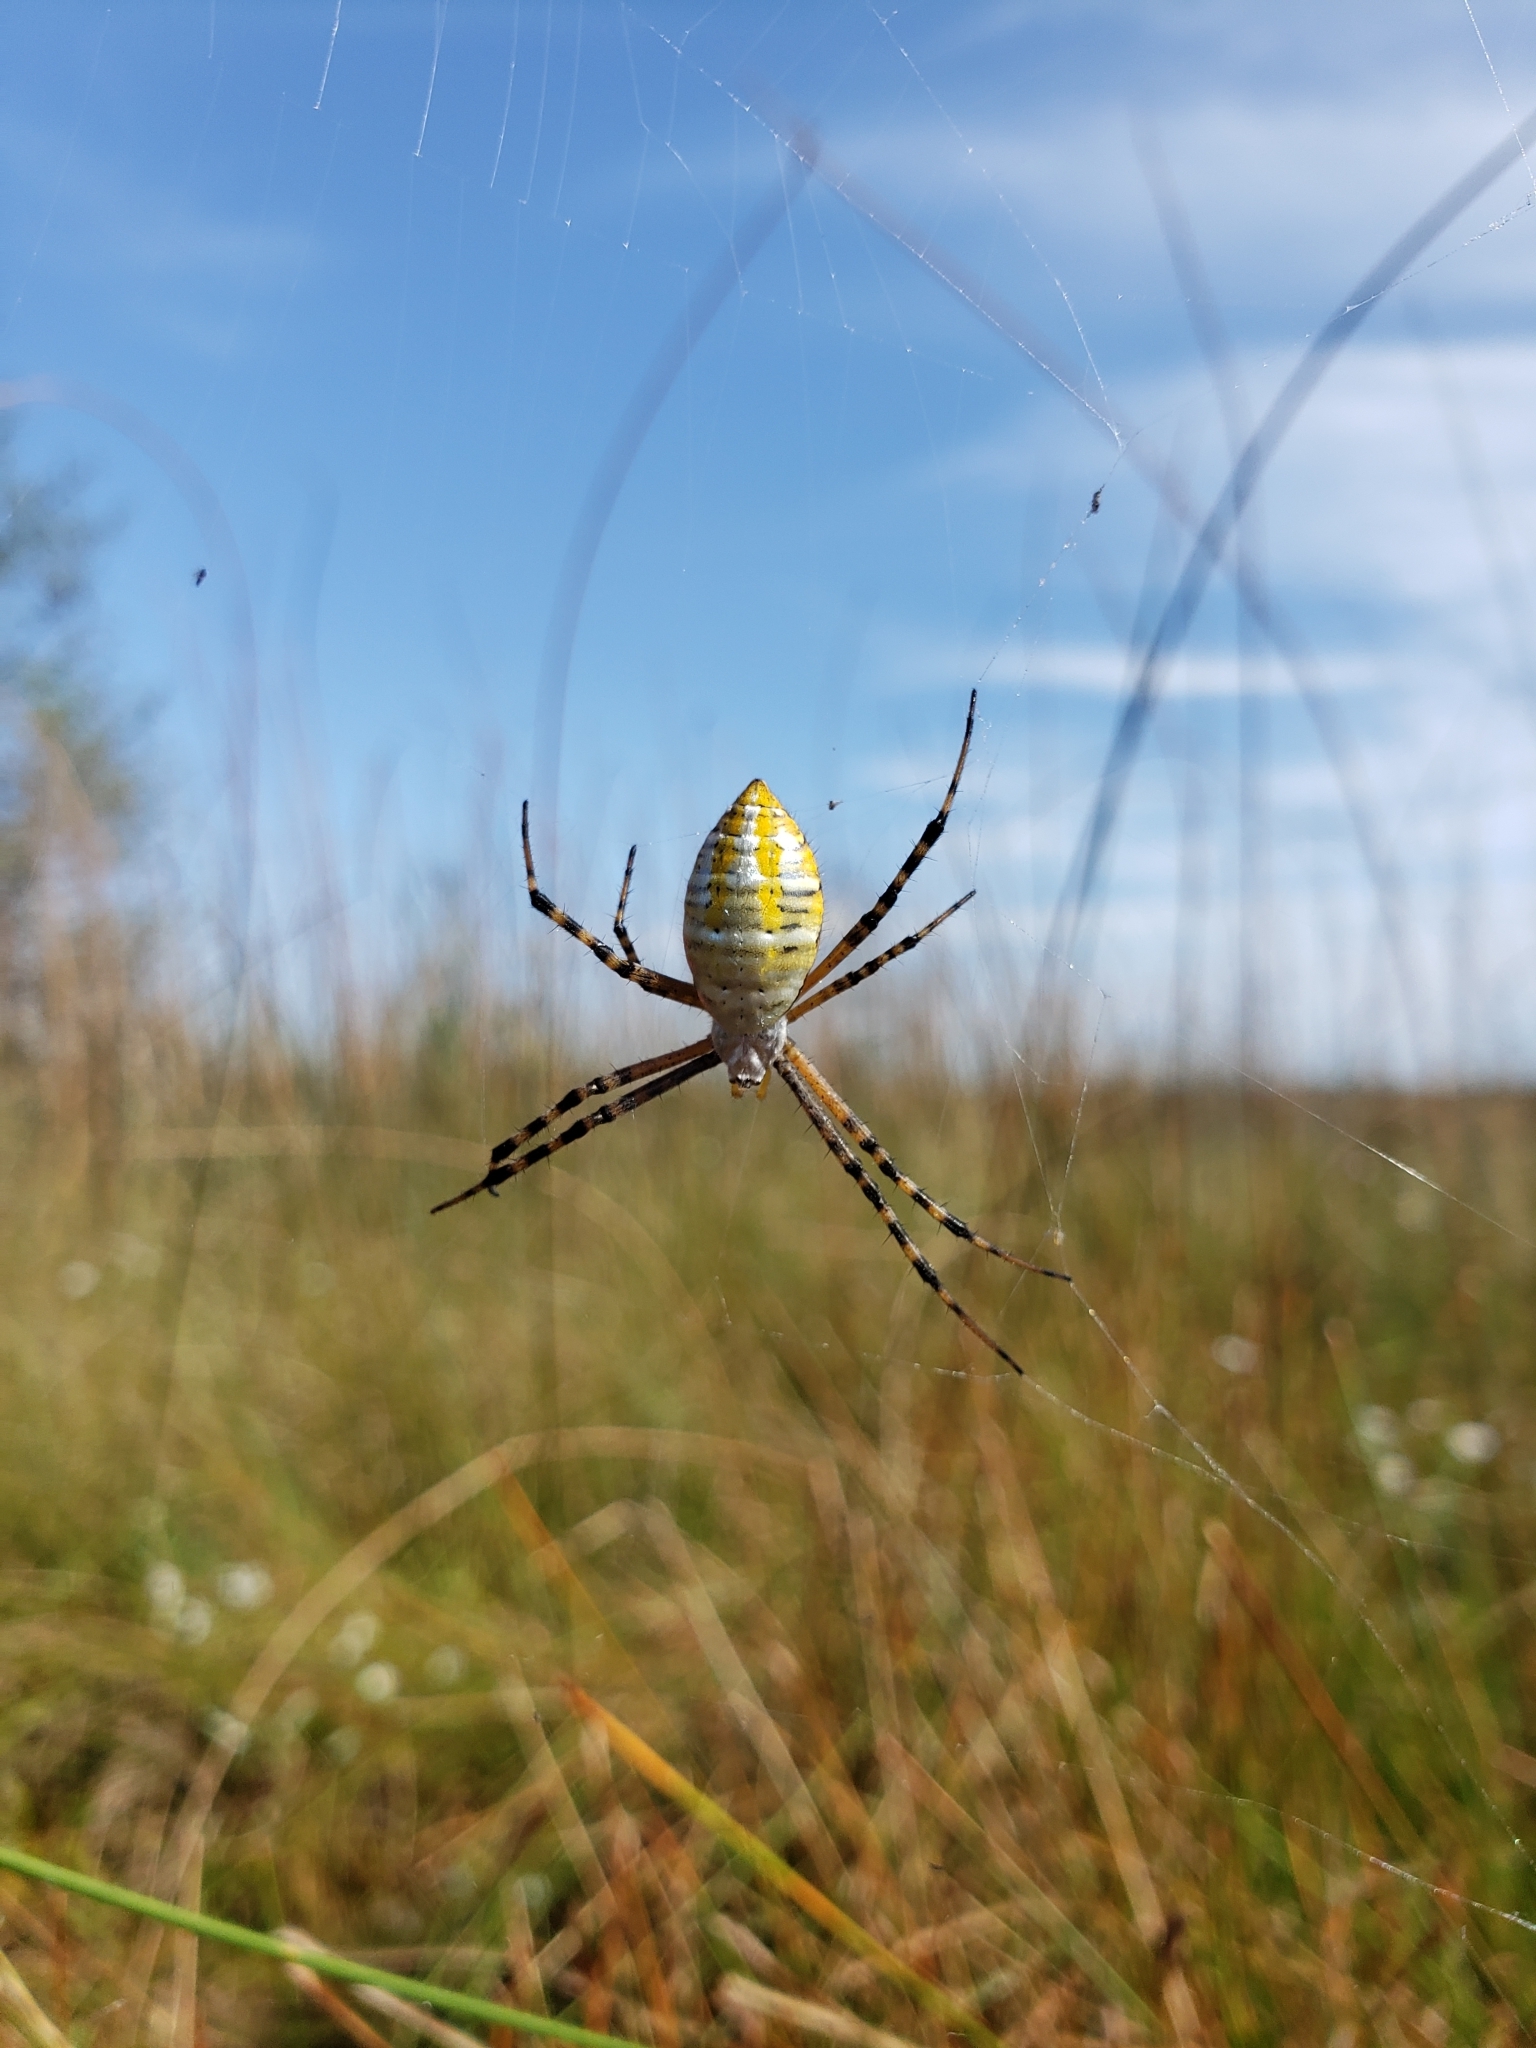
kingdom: Animalia
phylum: Arthropoda
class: Arachnida
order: Araneae
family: Araneidae
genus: Argiope
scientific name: Argiope trifasciata
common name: Banded garden spider
